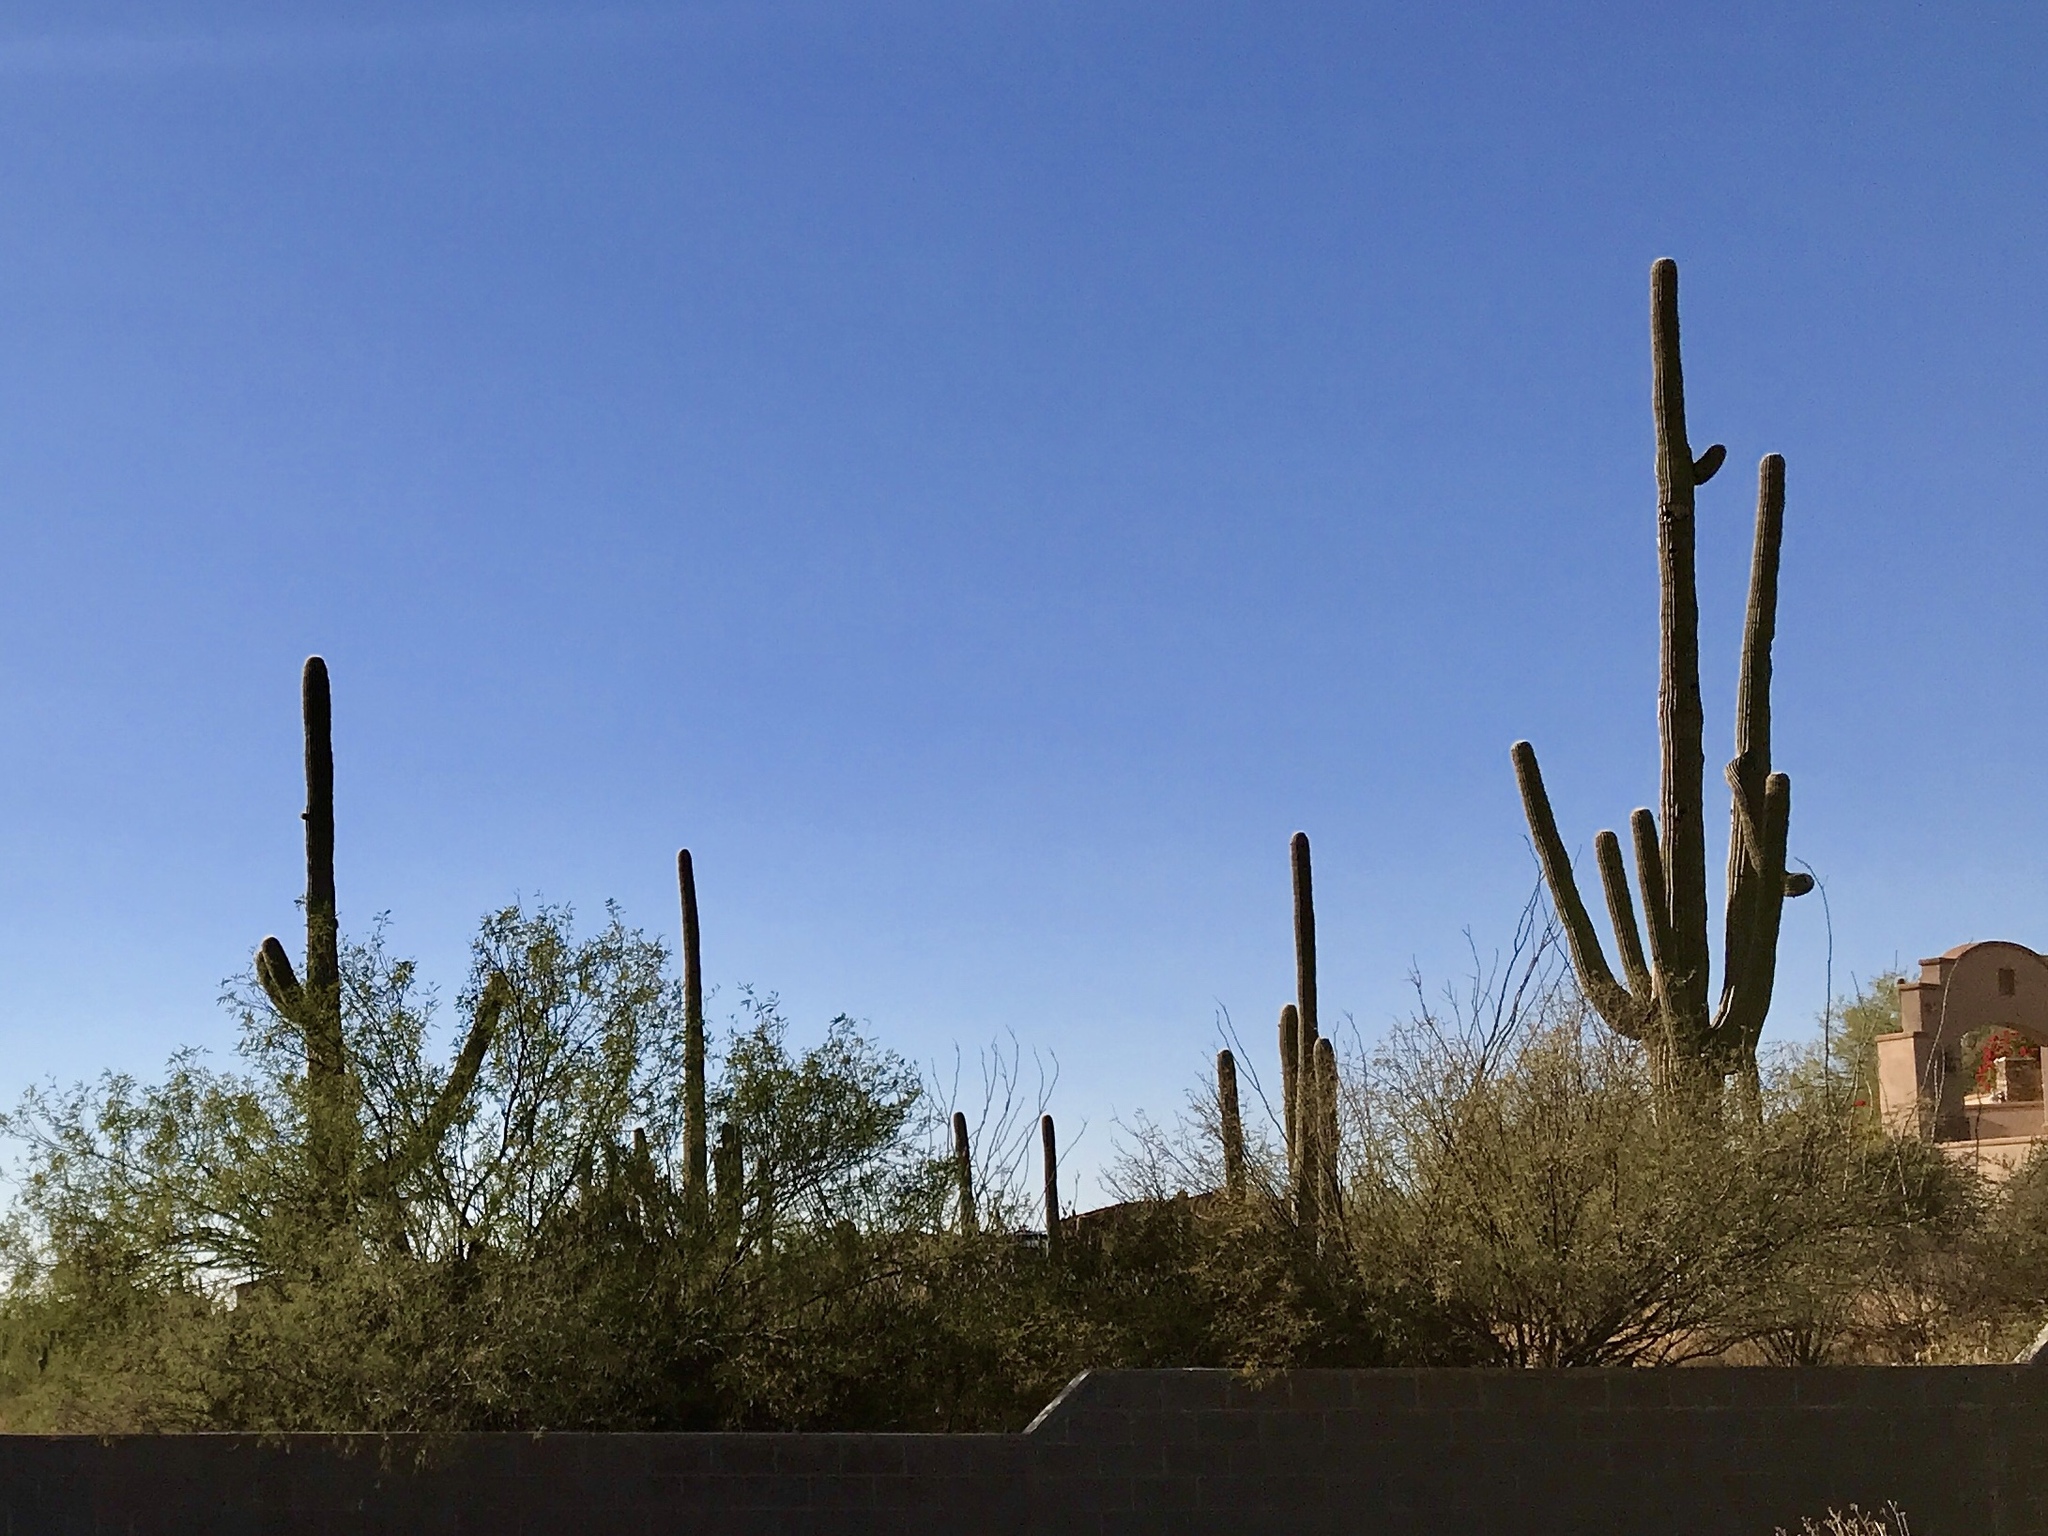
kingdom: Plantae
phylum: Tracheophyta
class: Magnoliopsida
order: Caryophyllales
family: Cactaceae
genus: Carnegiea
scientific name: Carnegiea gigantea
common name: Saguaro
